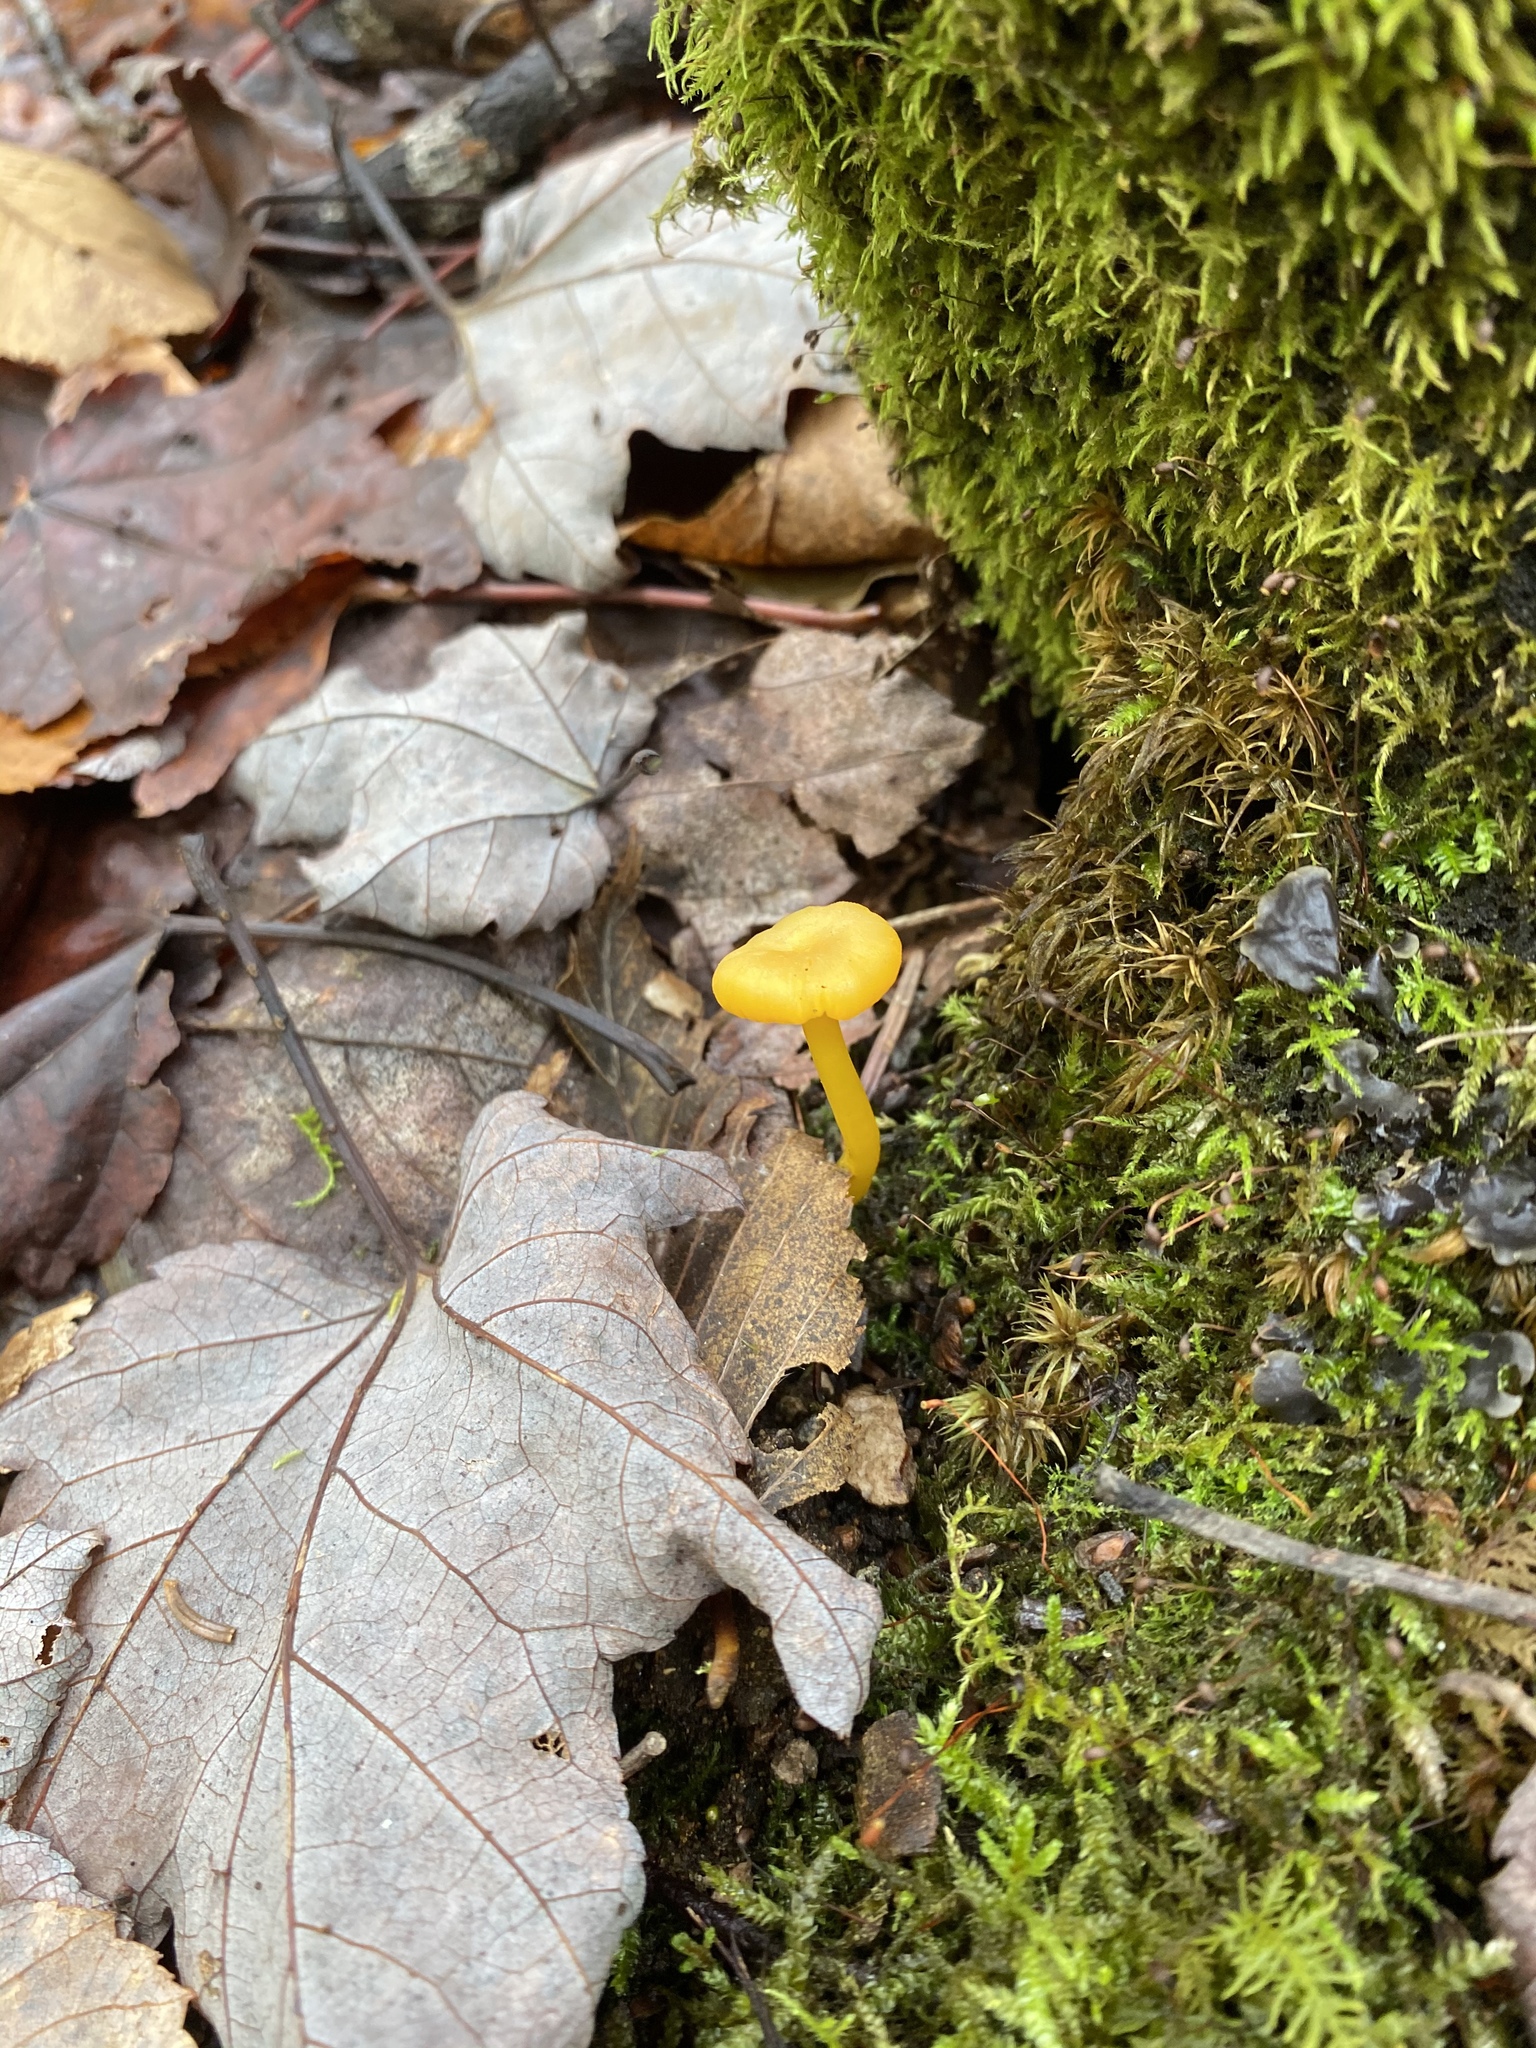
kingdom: Fungi
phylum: Basidiomycota
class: Agaricomycetes
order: Agaricales
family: Hygrophoraceae
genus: Gloioxanthomyces
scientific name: Gloioxanthomyces nitidus
